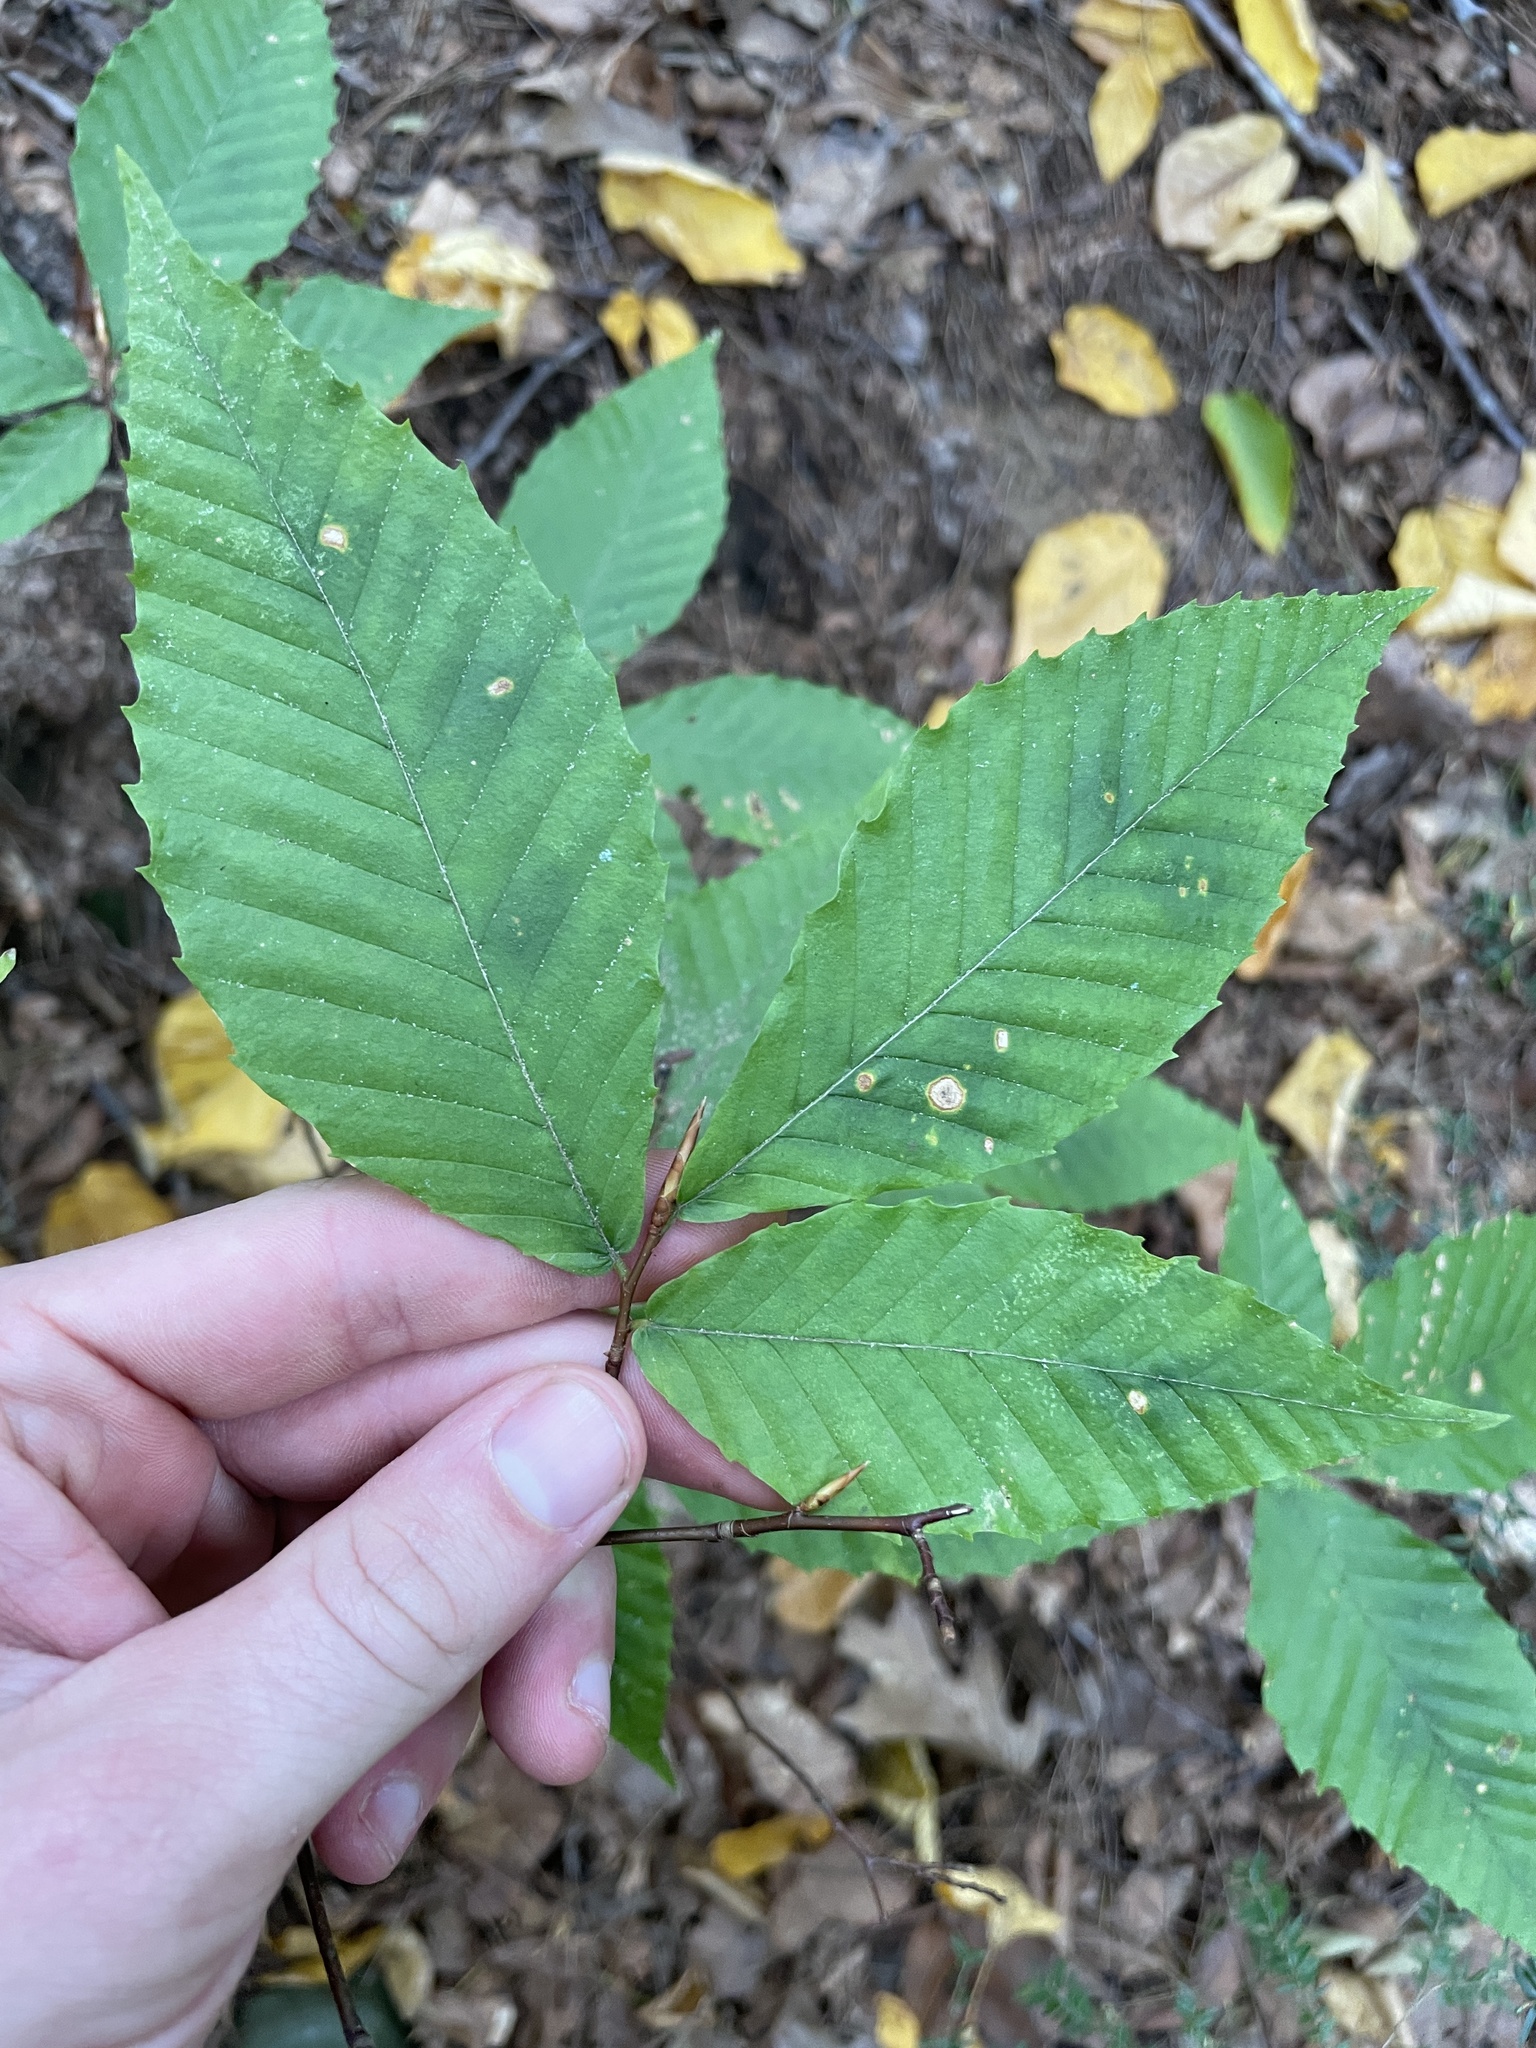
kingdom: Plantae
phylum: Tracheophyta
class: Magnoliopsida
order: Fagales
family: Fagaceae
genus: Fagus
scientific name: Fagus grandifolia
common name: American beech
